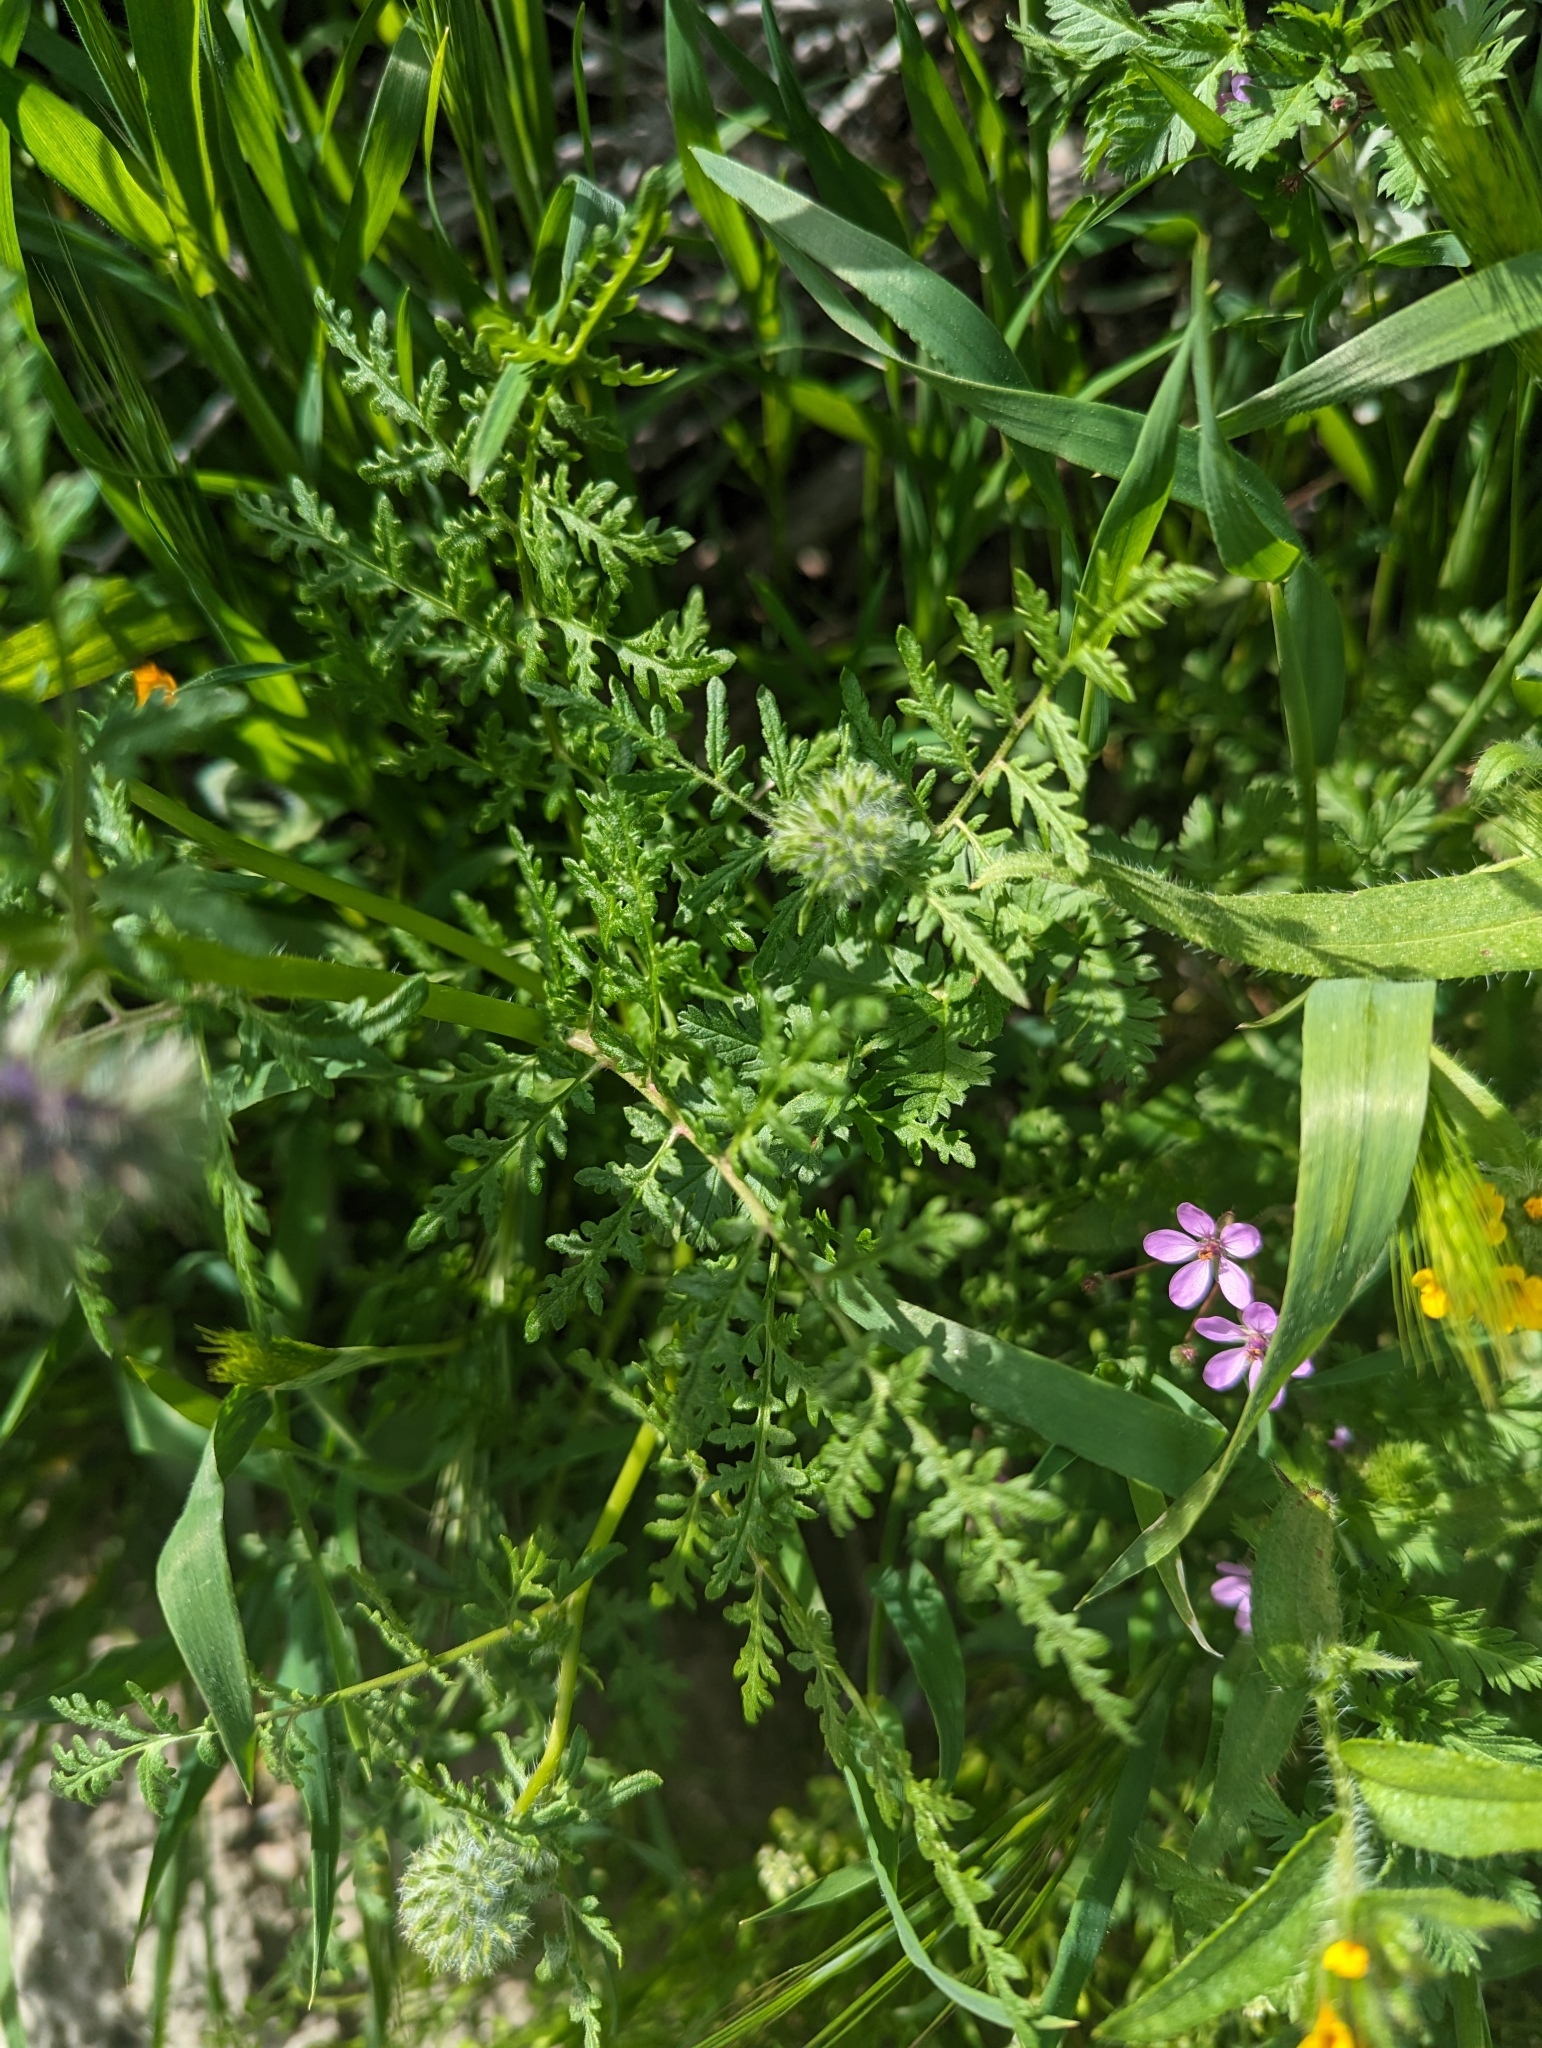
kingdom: Plantae
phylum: Tracheophyta
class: Magnoliopsida
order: Boraginales
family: Hydrophyllaceae
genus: Phacelia
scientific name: Phacelia tanacetifolia
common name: Phacelia
